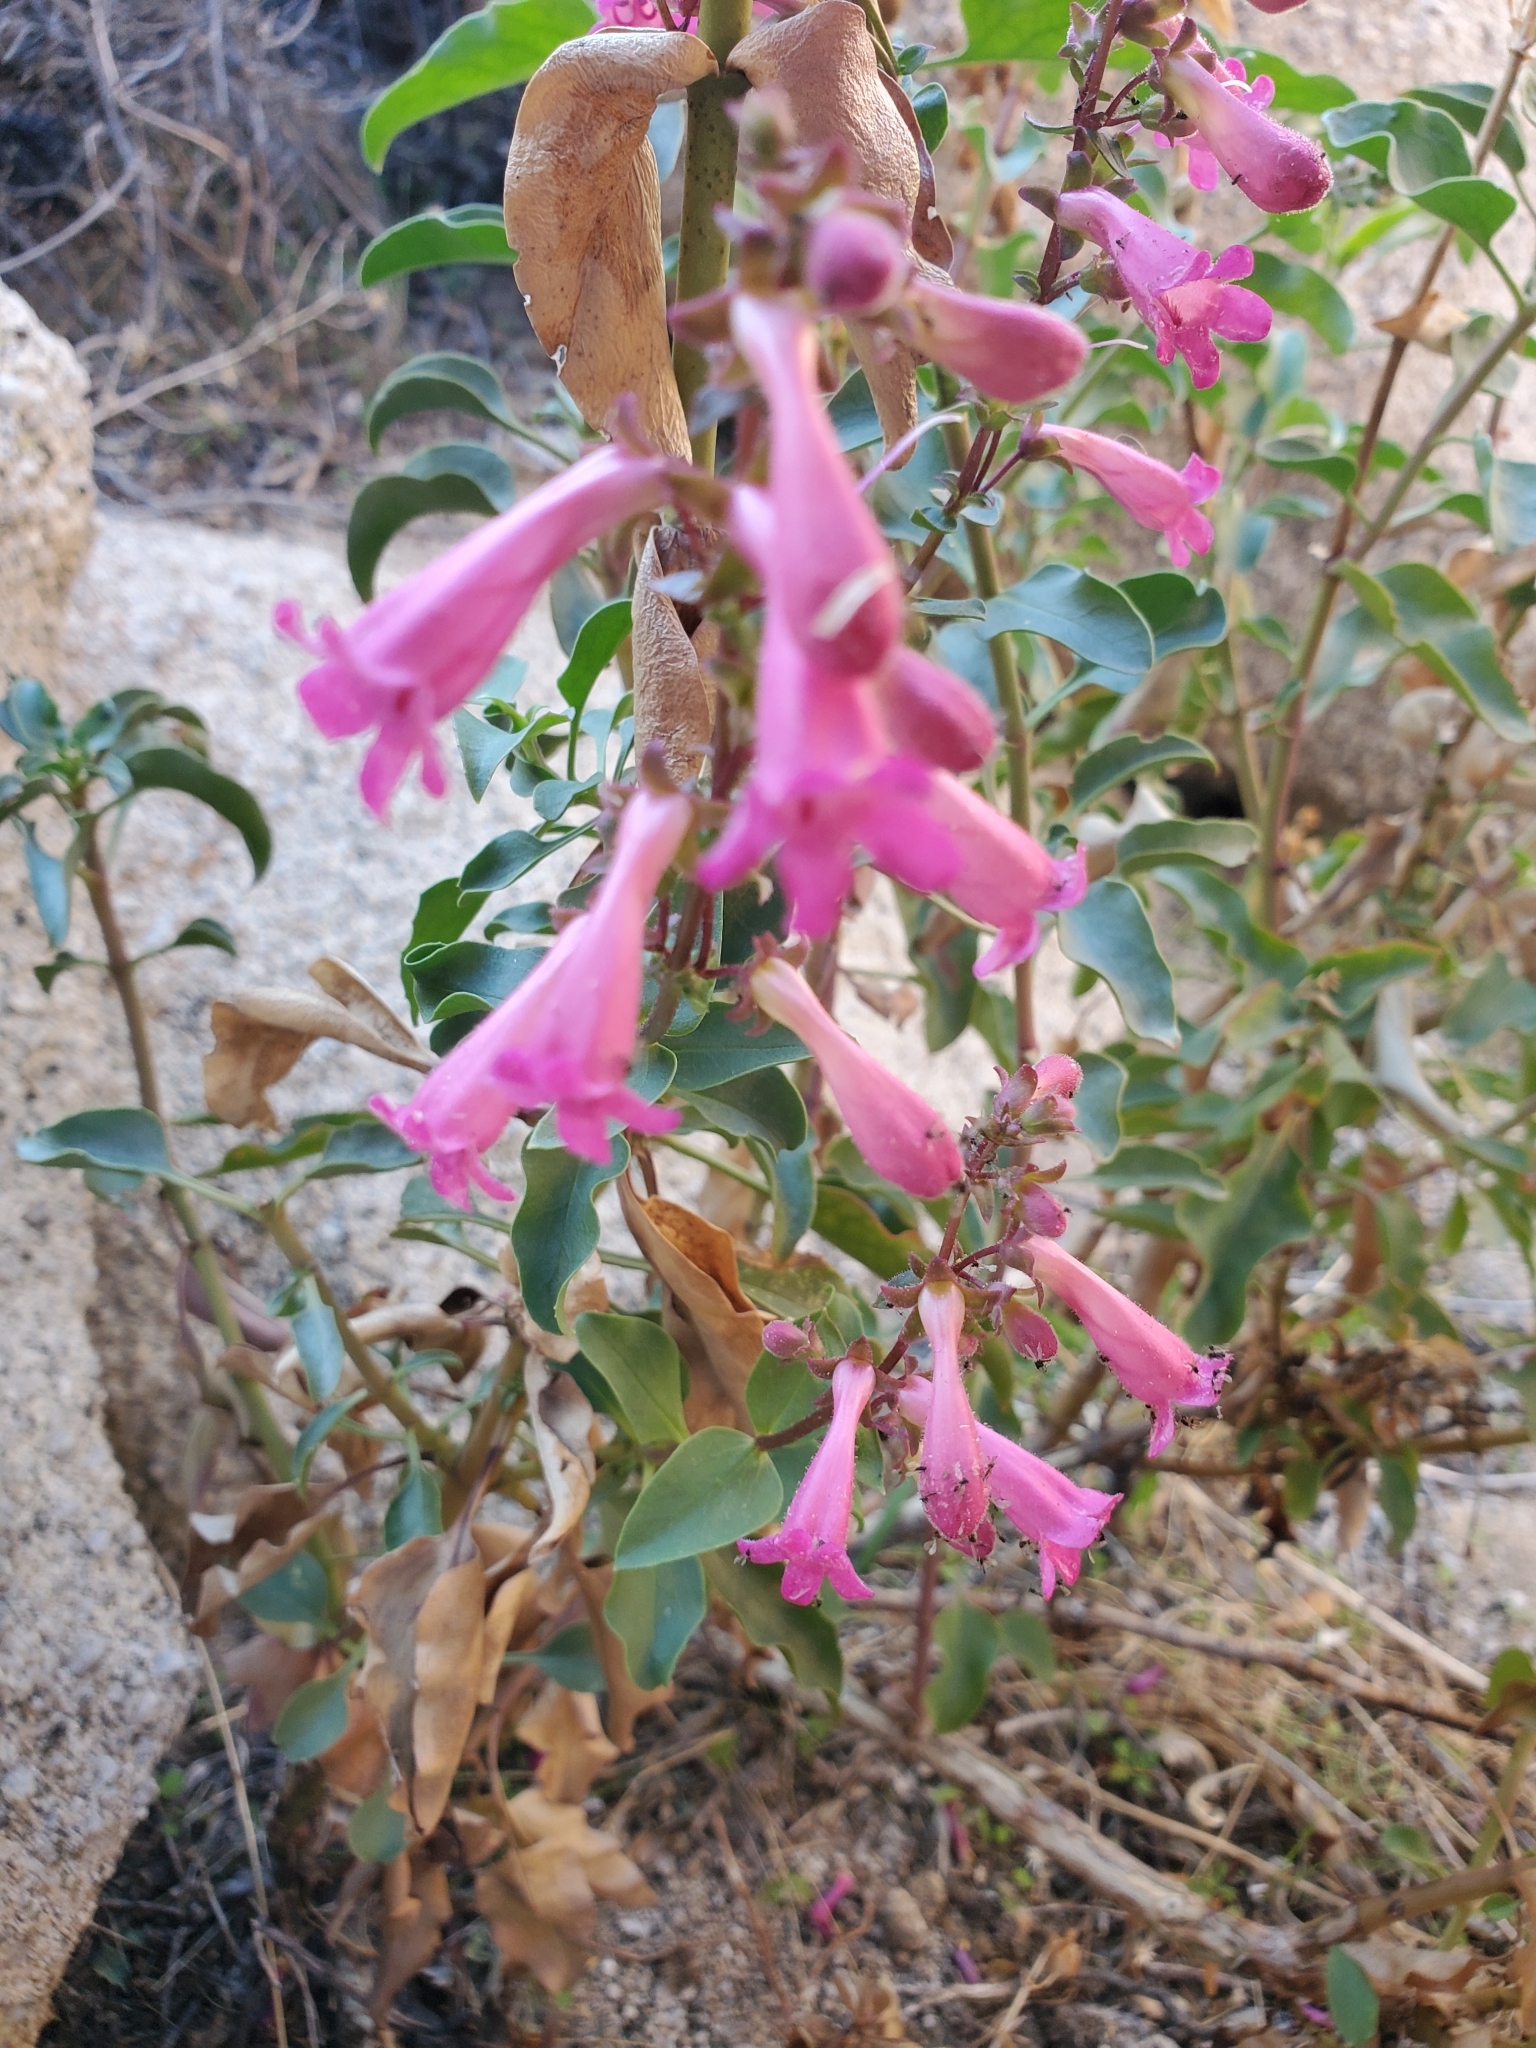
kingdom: Plantae
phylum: Tracheophyta
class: Magnoliopsida
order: Lamiales
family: Plantaginaceae
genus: Penstemon
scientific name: Penstemon clevelandii
